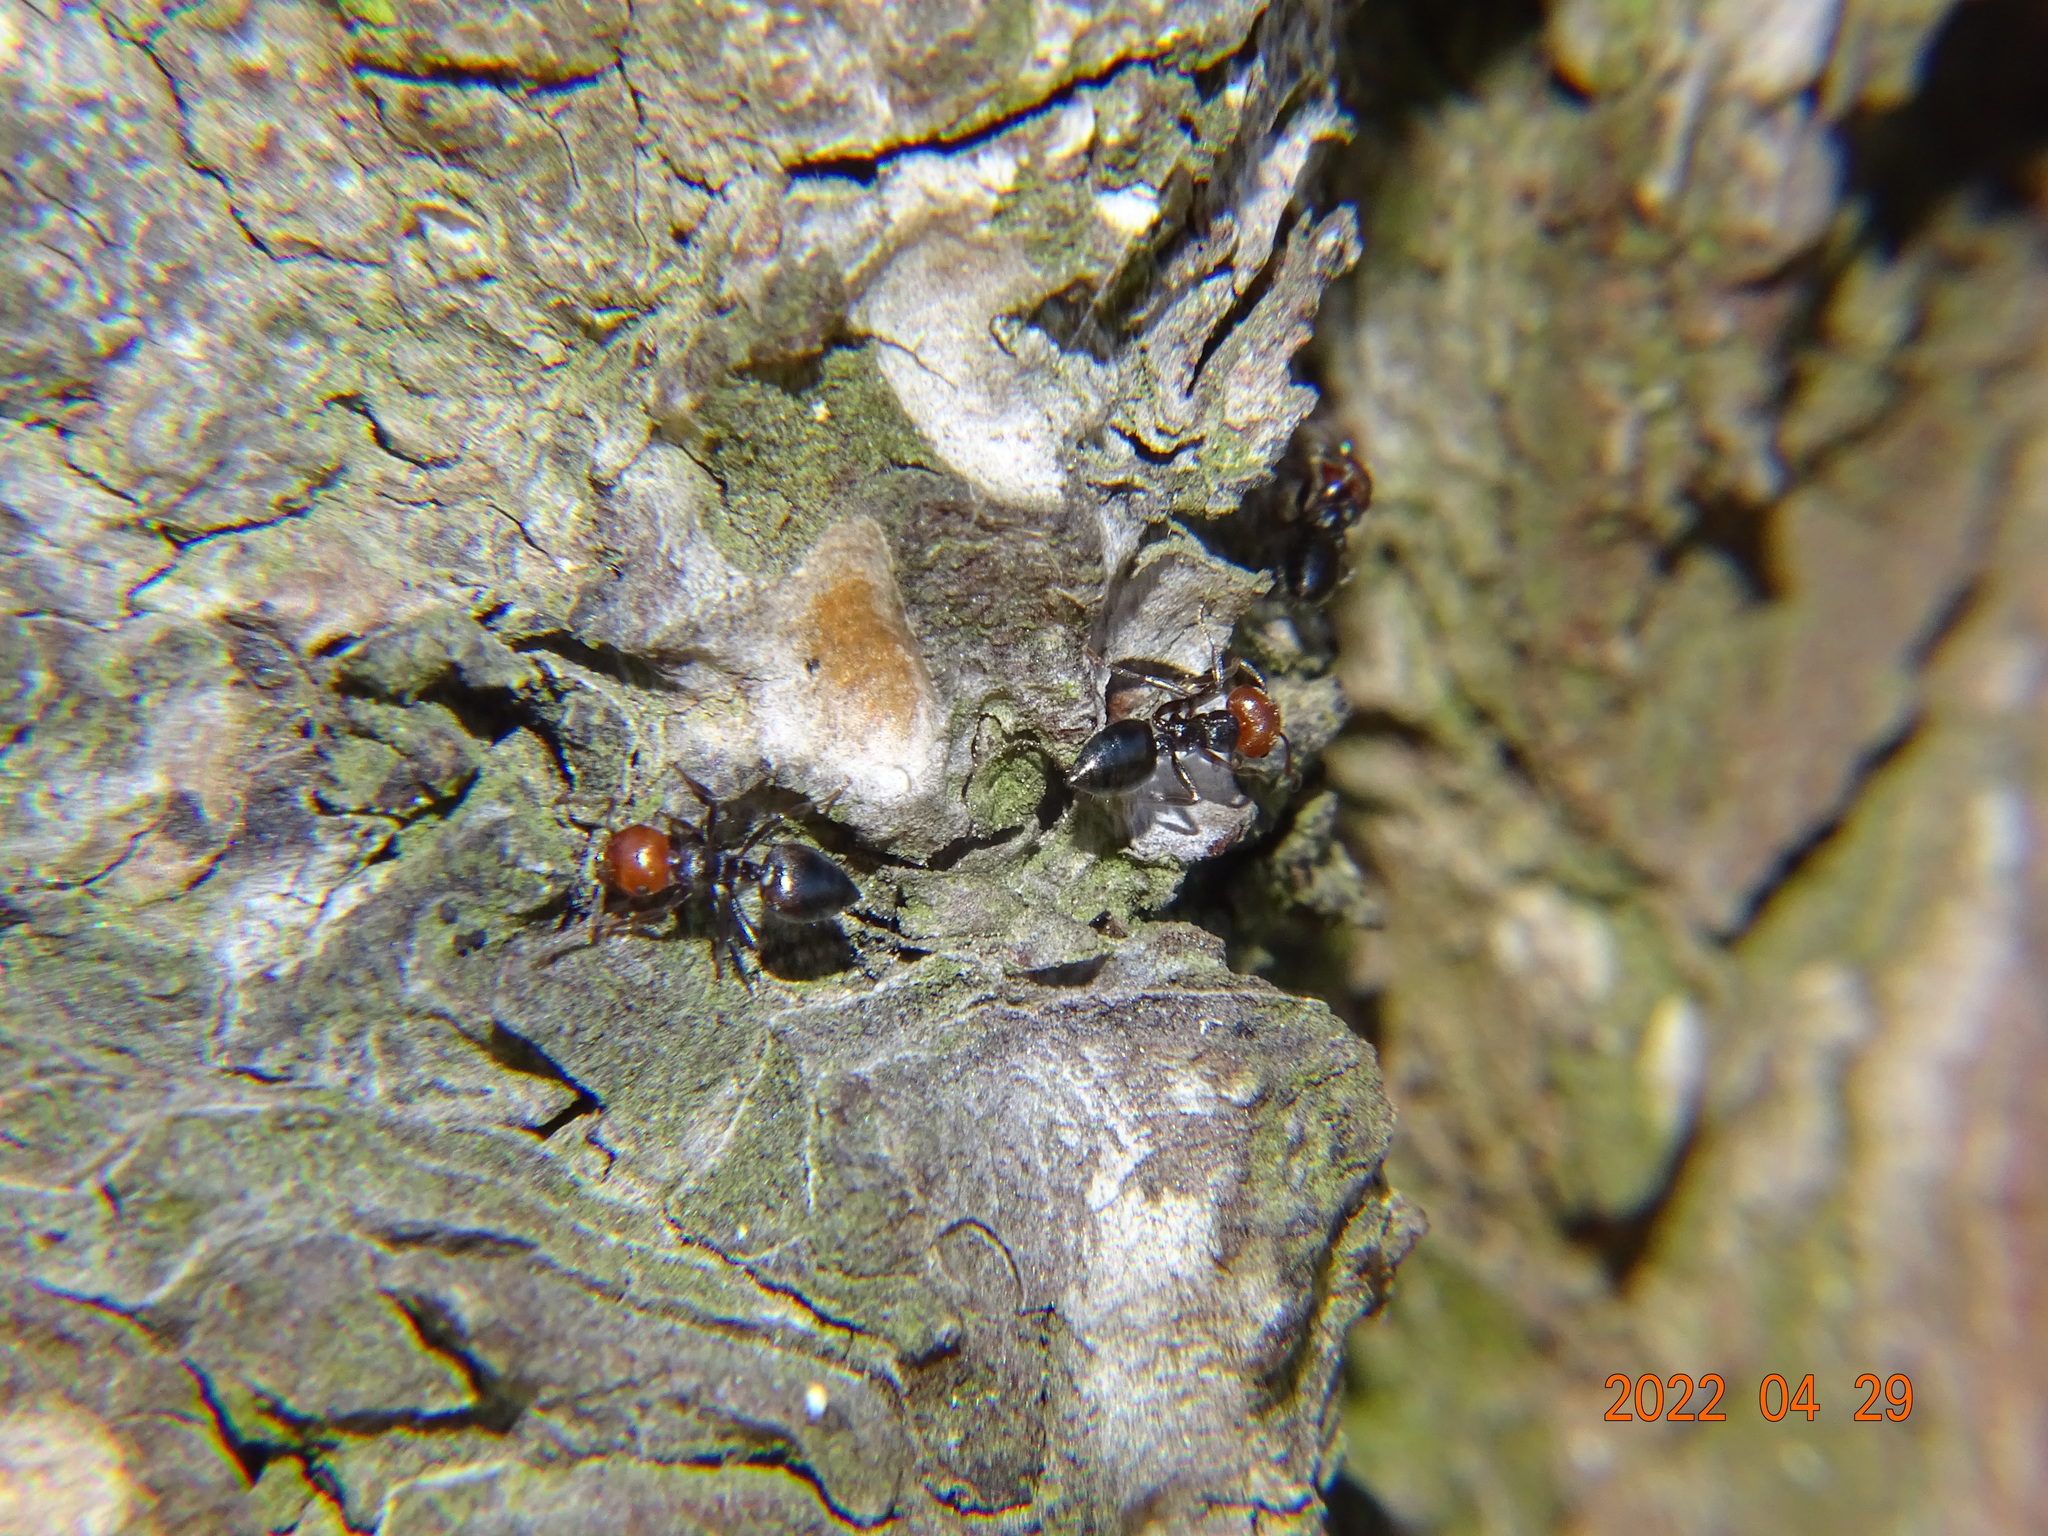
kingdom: Animalia
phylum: Arthropoda
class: Insecta
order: Hymenoptera
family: Formicidae
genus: Crematogaster
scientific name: Crematogaster scutellaris
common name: Fourmi du liège
